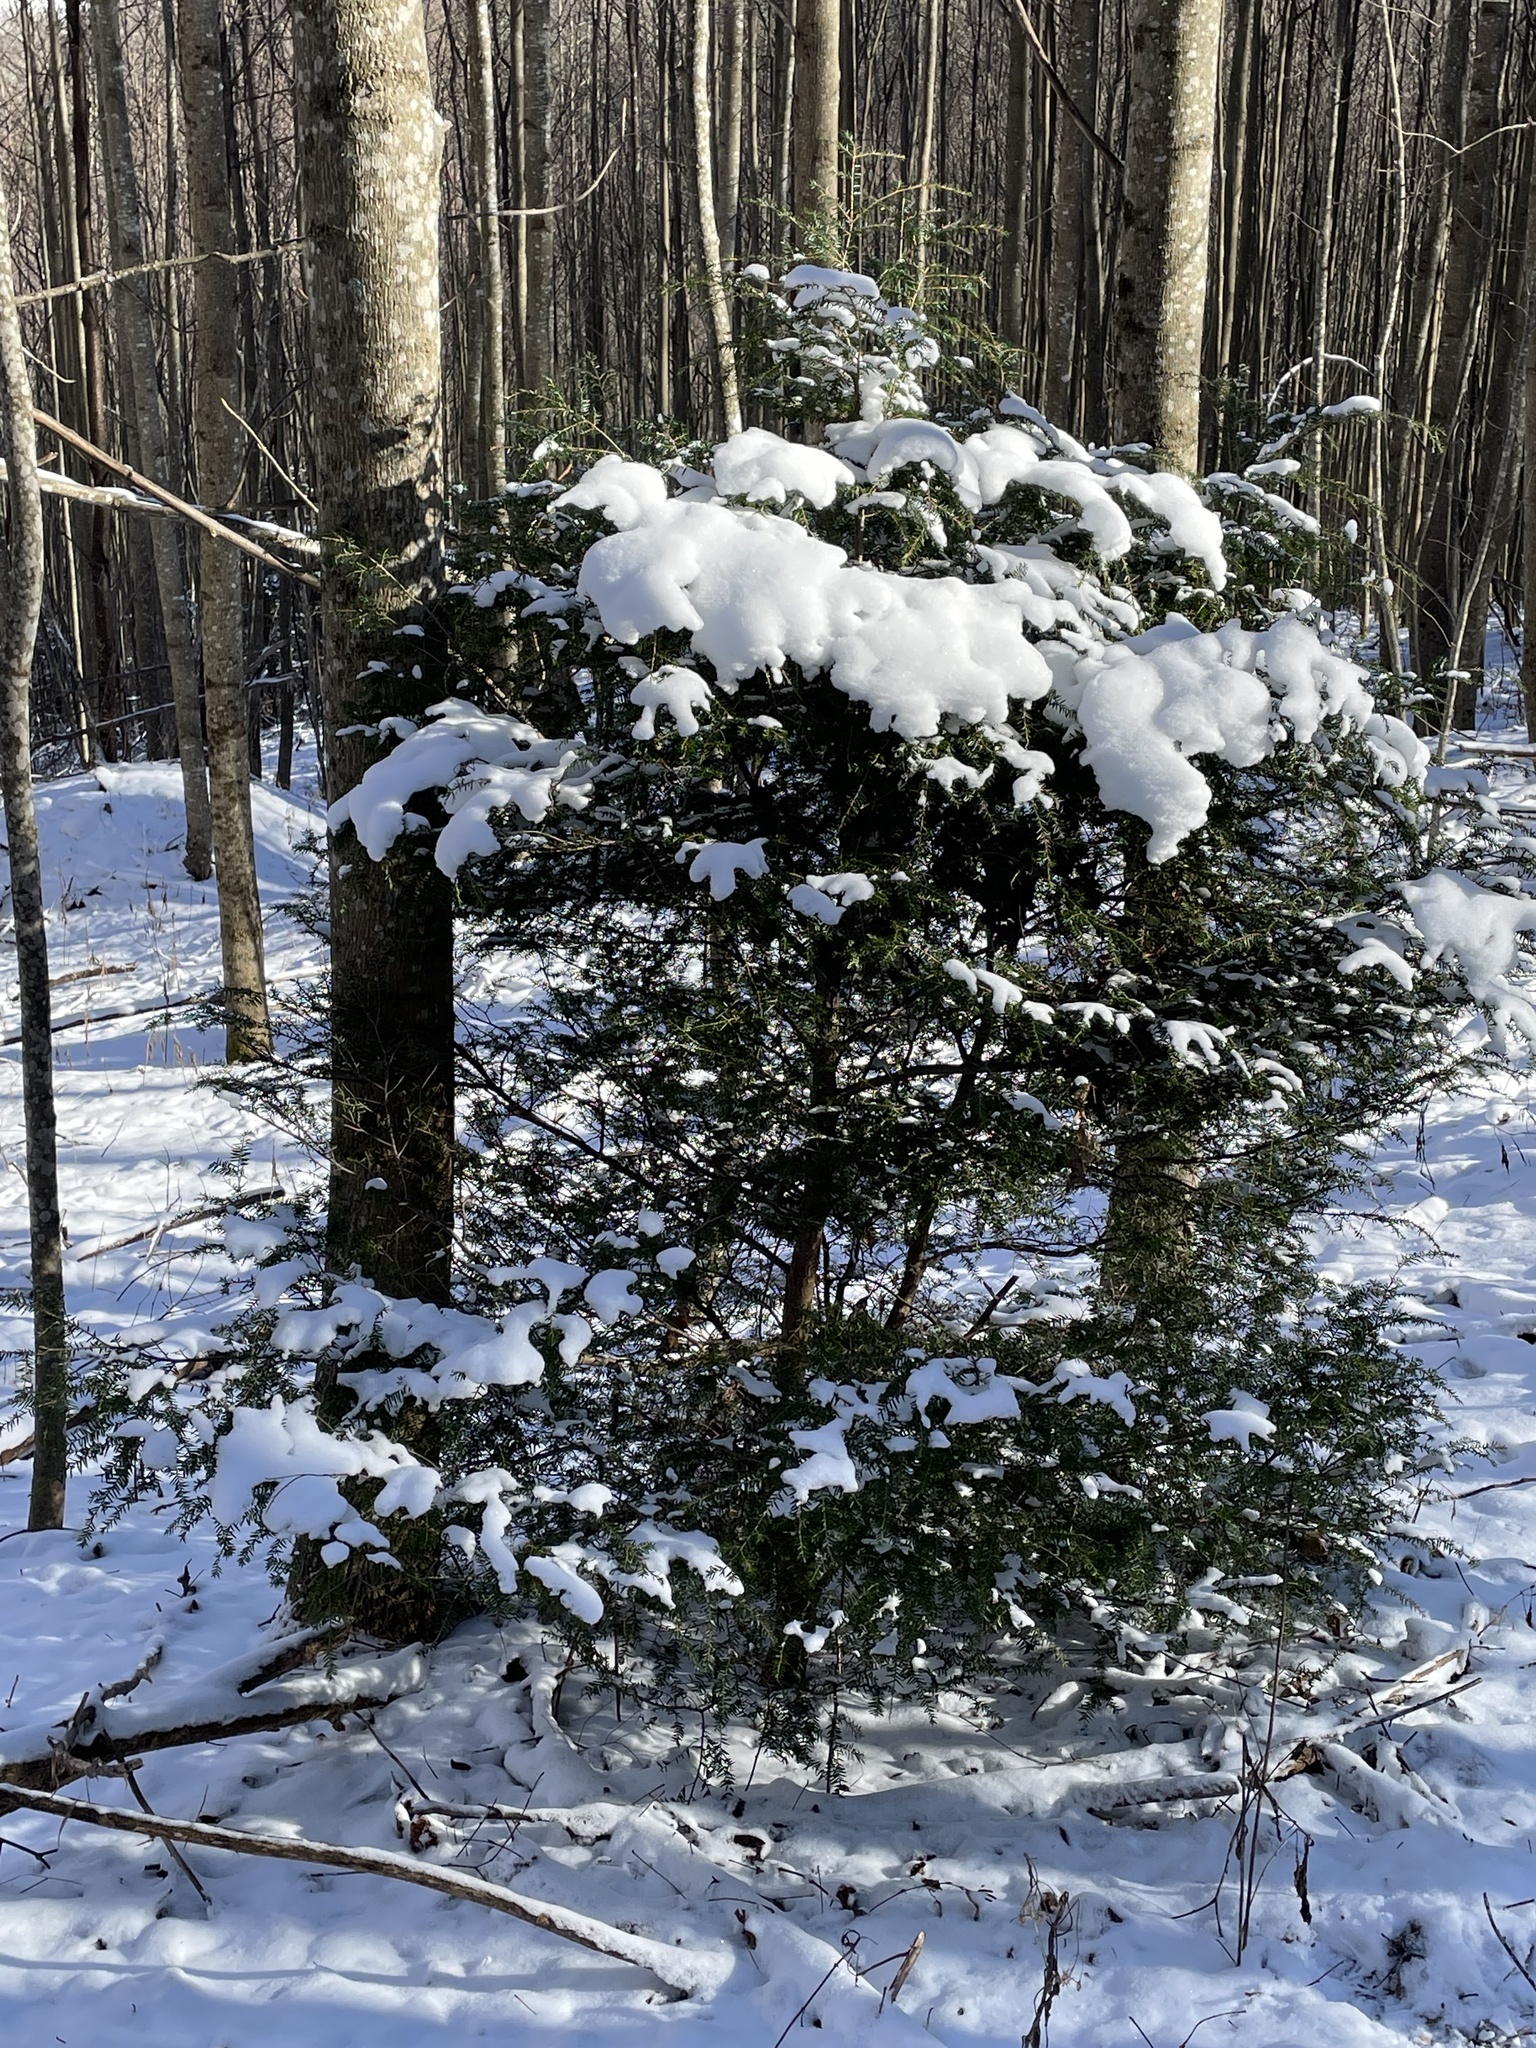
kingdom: Plantae
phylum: Tracheophyta
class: Pinopsida
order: Pinales
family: Pinaceae
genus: Tsuga
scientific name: Tsuga canadensis
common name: Eastern hemlock
